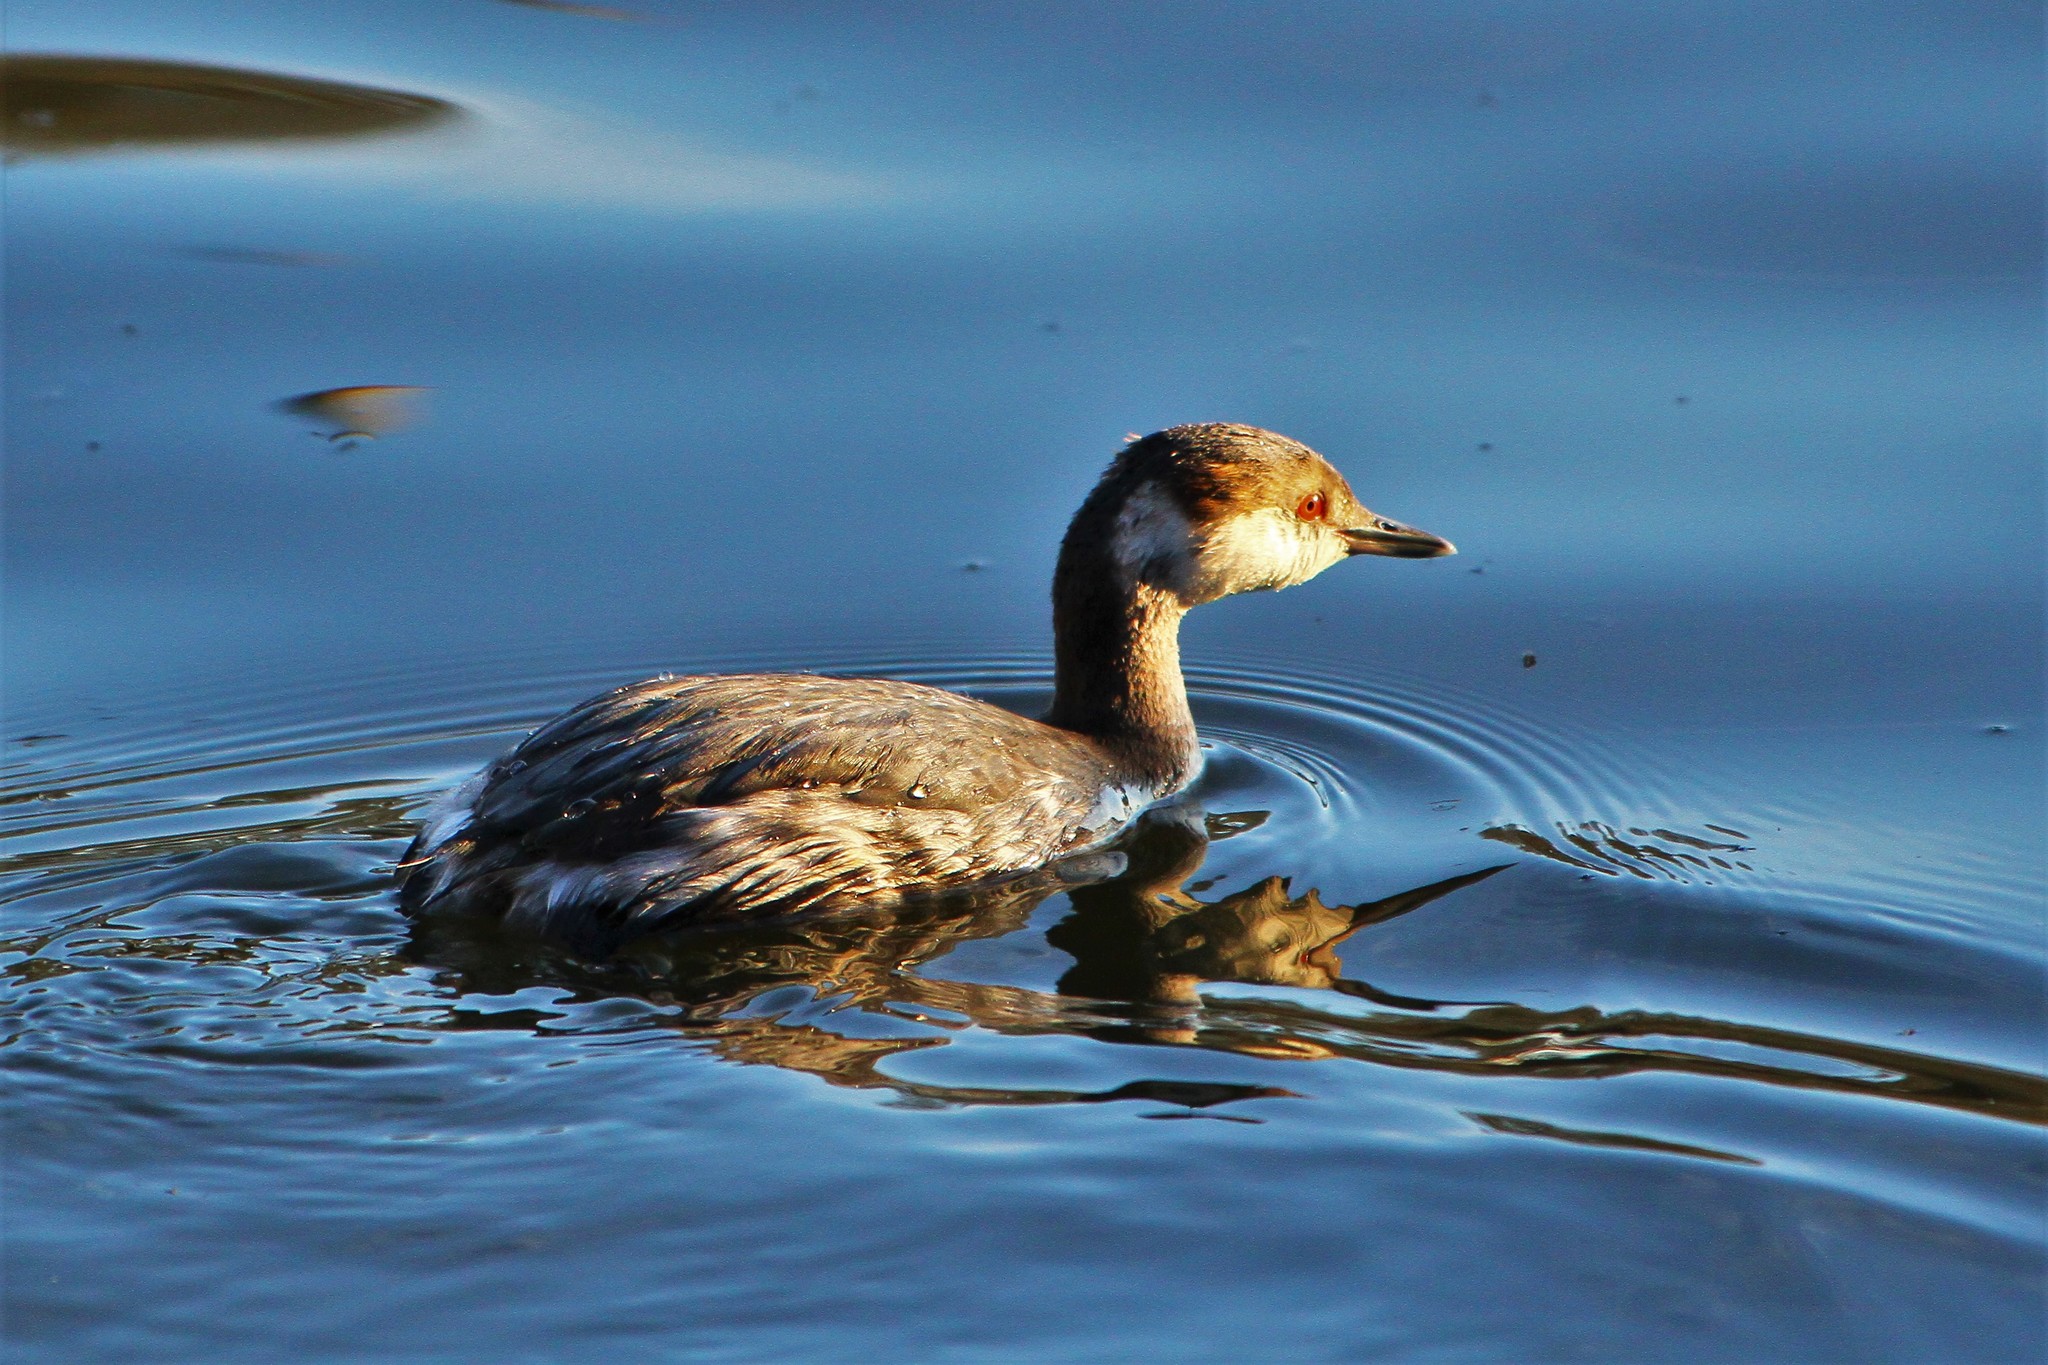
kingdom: Animalia
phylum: Chordata
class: Aves
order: Podicipediformes
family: Podicipedidae
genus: Podiceps
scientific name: Podiceps auritus
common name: Horned grebe
